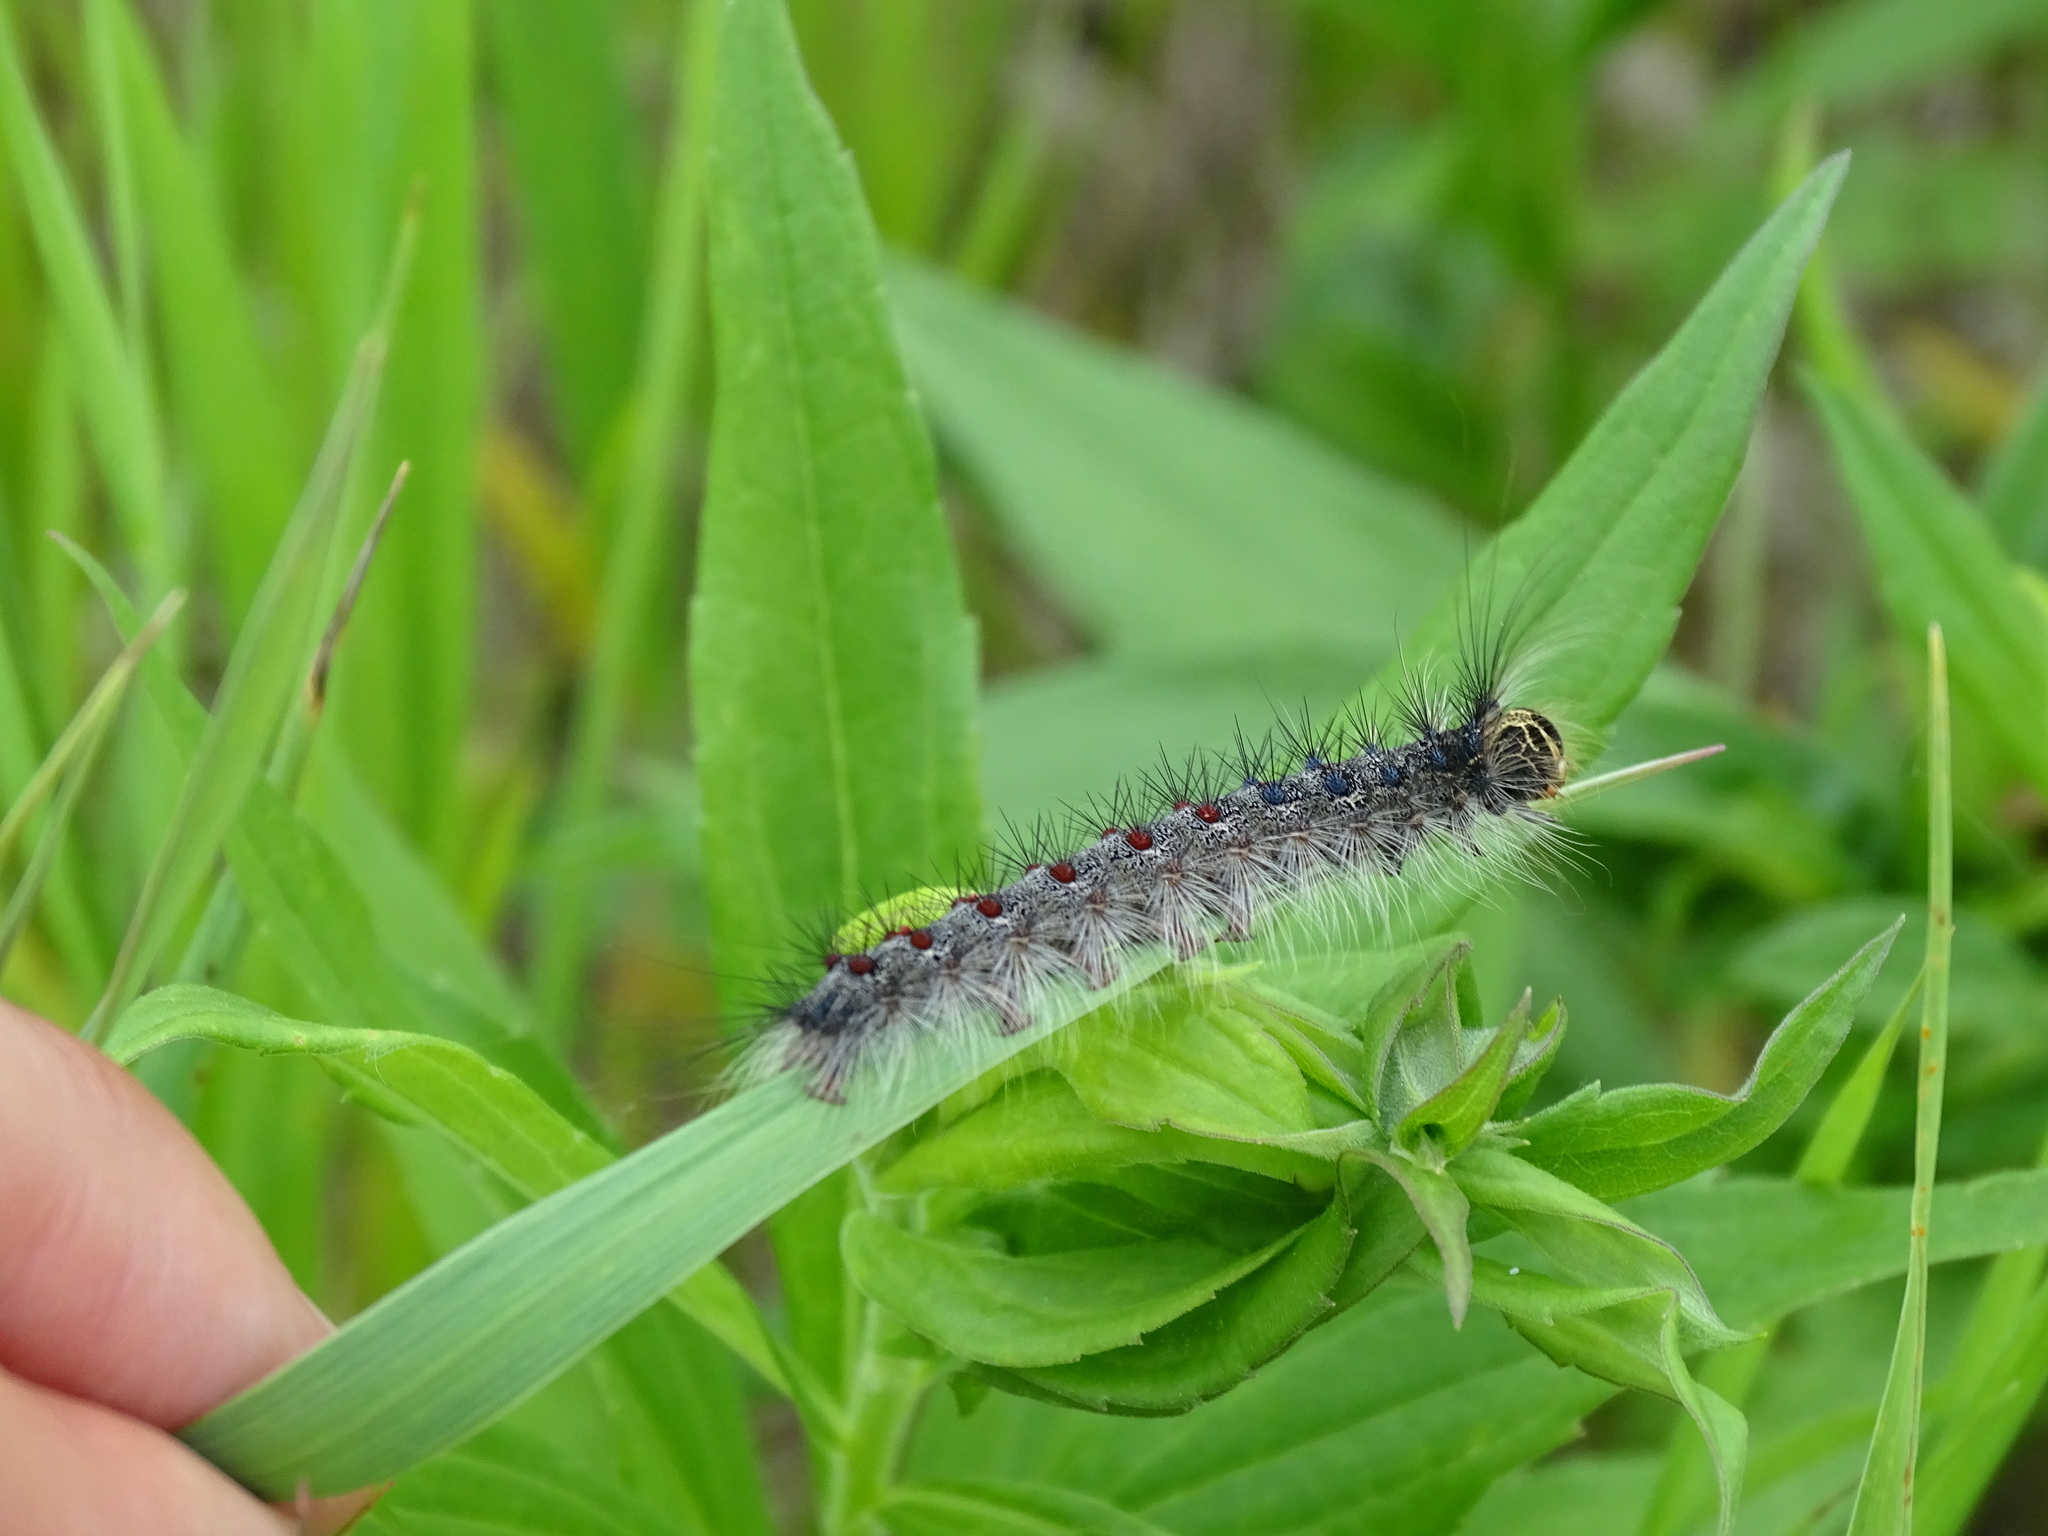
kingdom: Animalia
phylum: Arthropoda
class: Insecta
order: Lepidoptera
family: Erebidae
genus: Lymantria
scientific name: Lymantria dispar
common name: Gypsy moth
